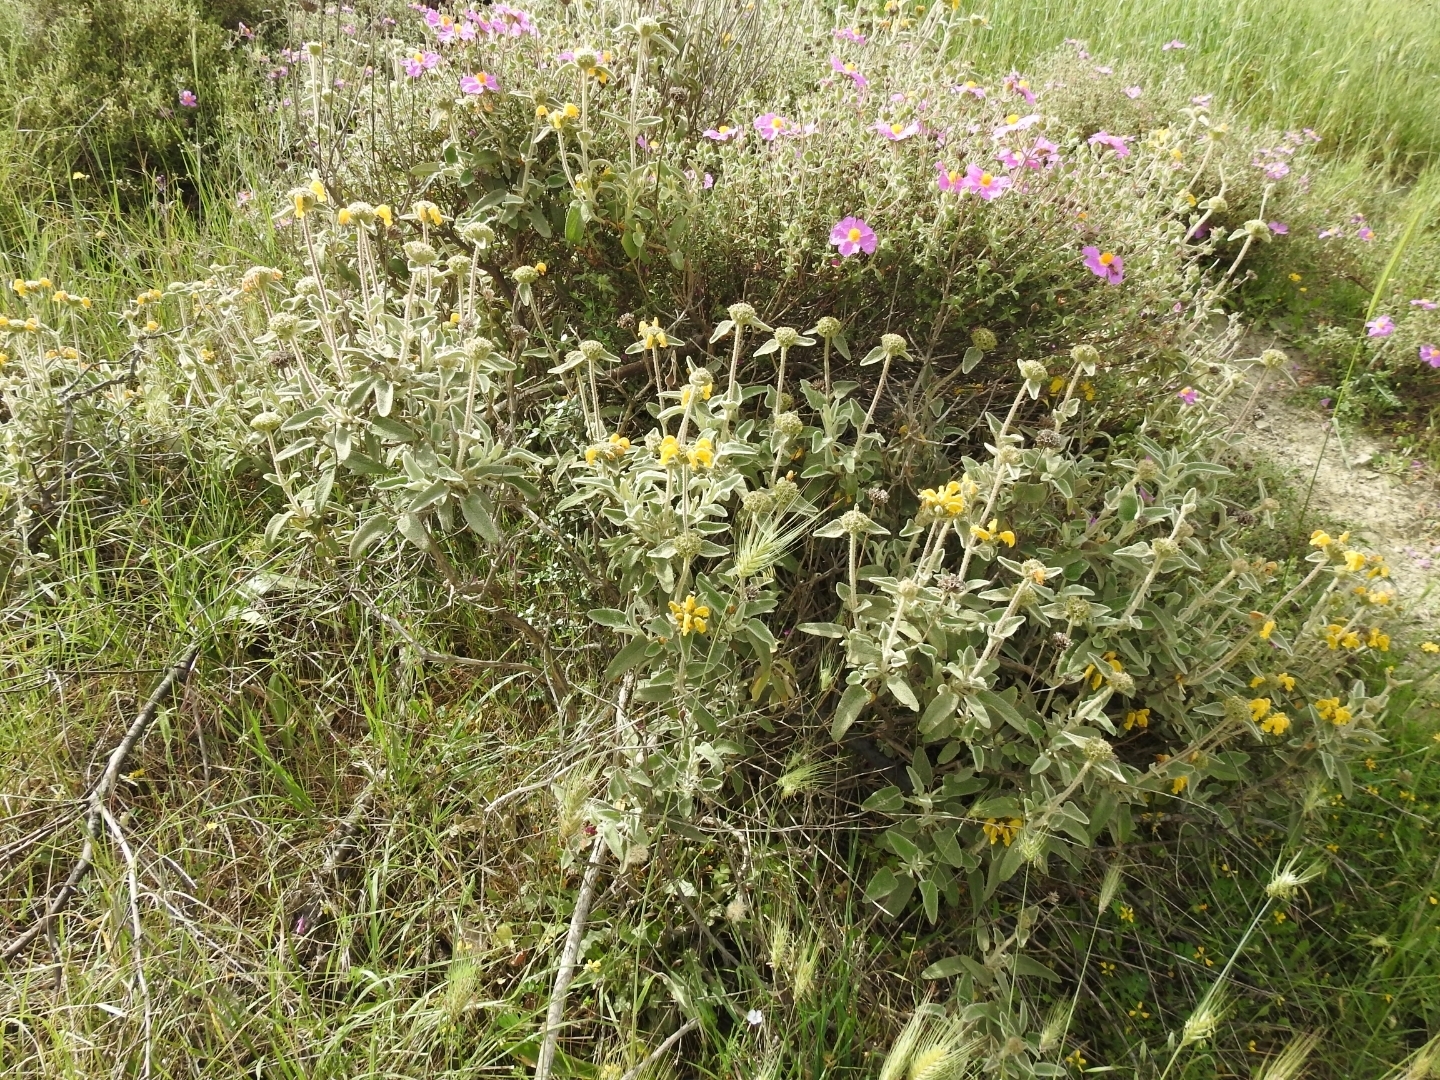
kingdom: Plantae
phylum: Tracheophyta
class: Magnoliopsida
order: Lamiales
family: Lamiaceae
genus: Phlomis
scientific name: Phlomis fruticosa
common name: Jerusalem sage
